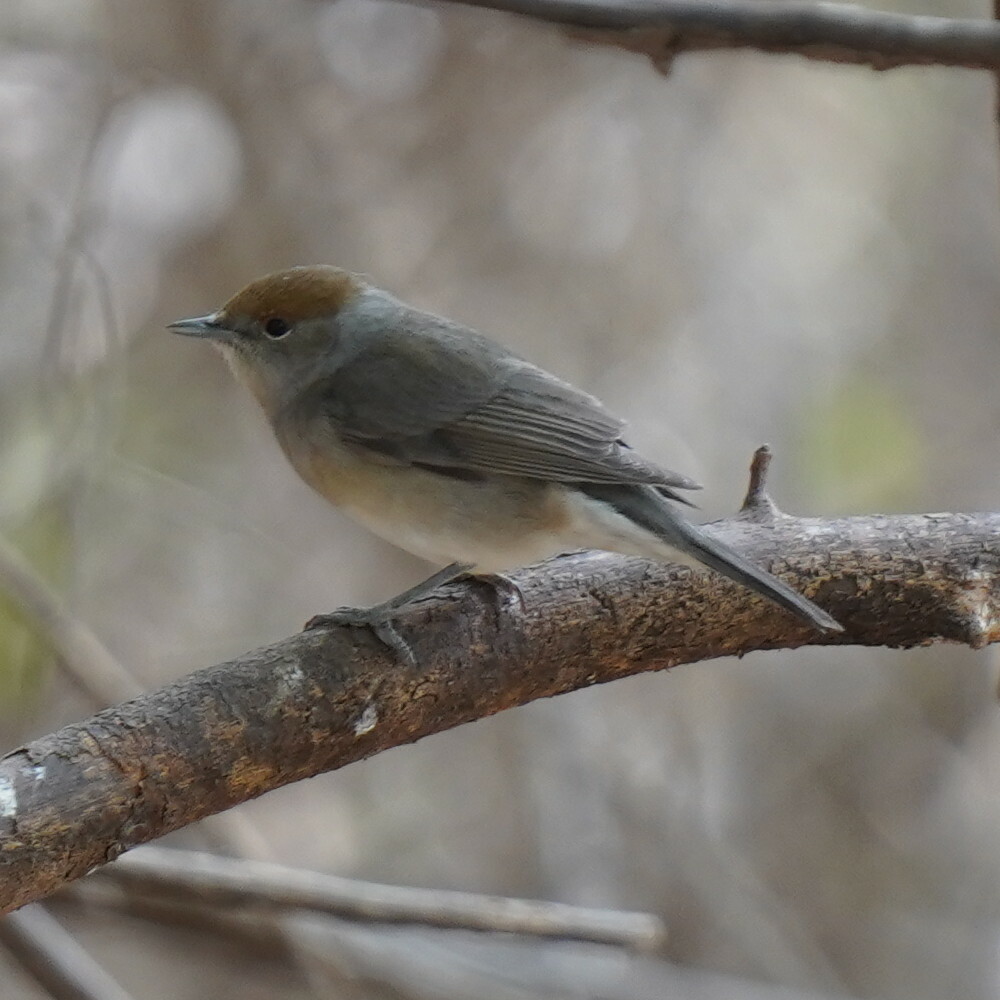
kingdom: Animalia
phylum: Chordata
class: Aves
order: Passeriformes
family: Sylviidae
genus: Sylvia
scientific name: Sylvia atricapilla
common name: Eurasian blackcap
